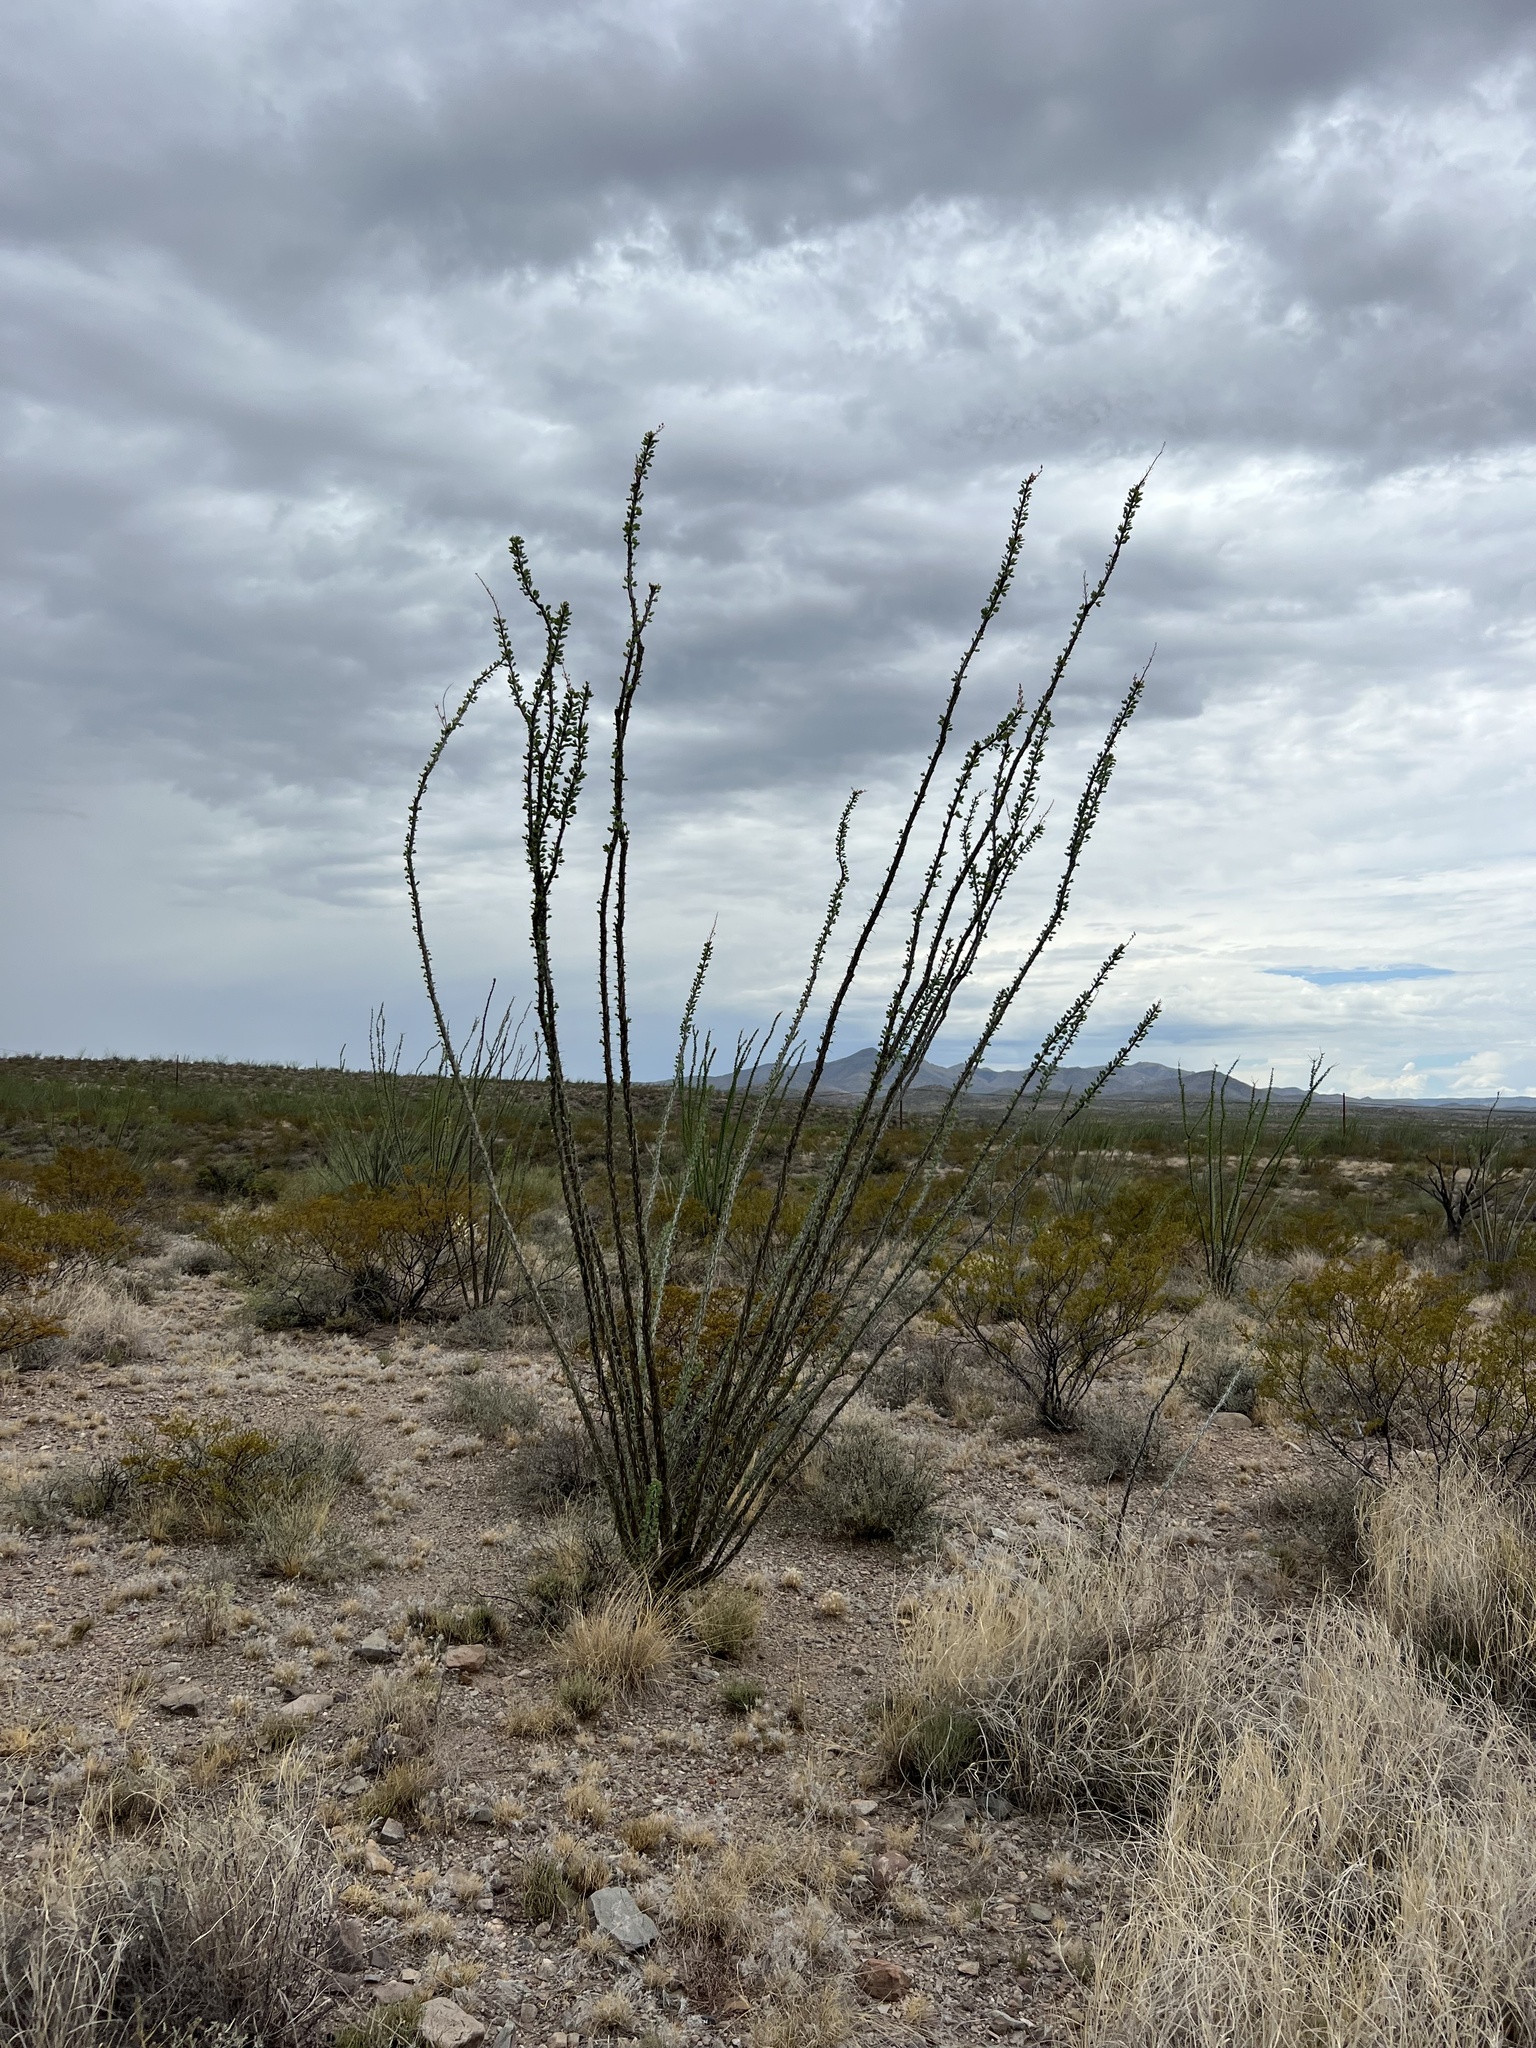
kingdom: Plantae
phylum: Tracheophyta
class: Magnoliopsida
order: Ericales
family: Fouquieriaceae
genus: Fouquieria
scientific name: Fouquieria splendens
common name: Vine-cactus
